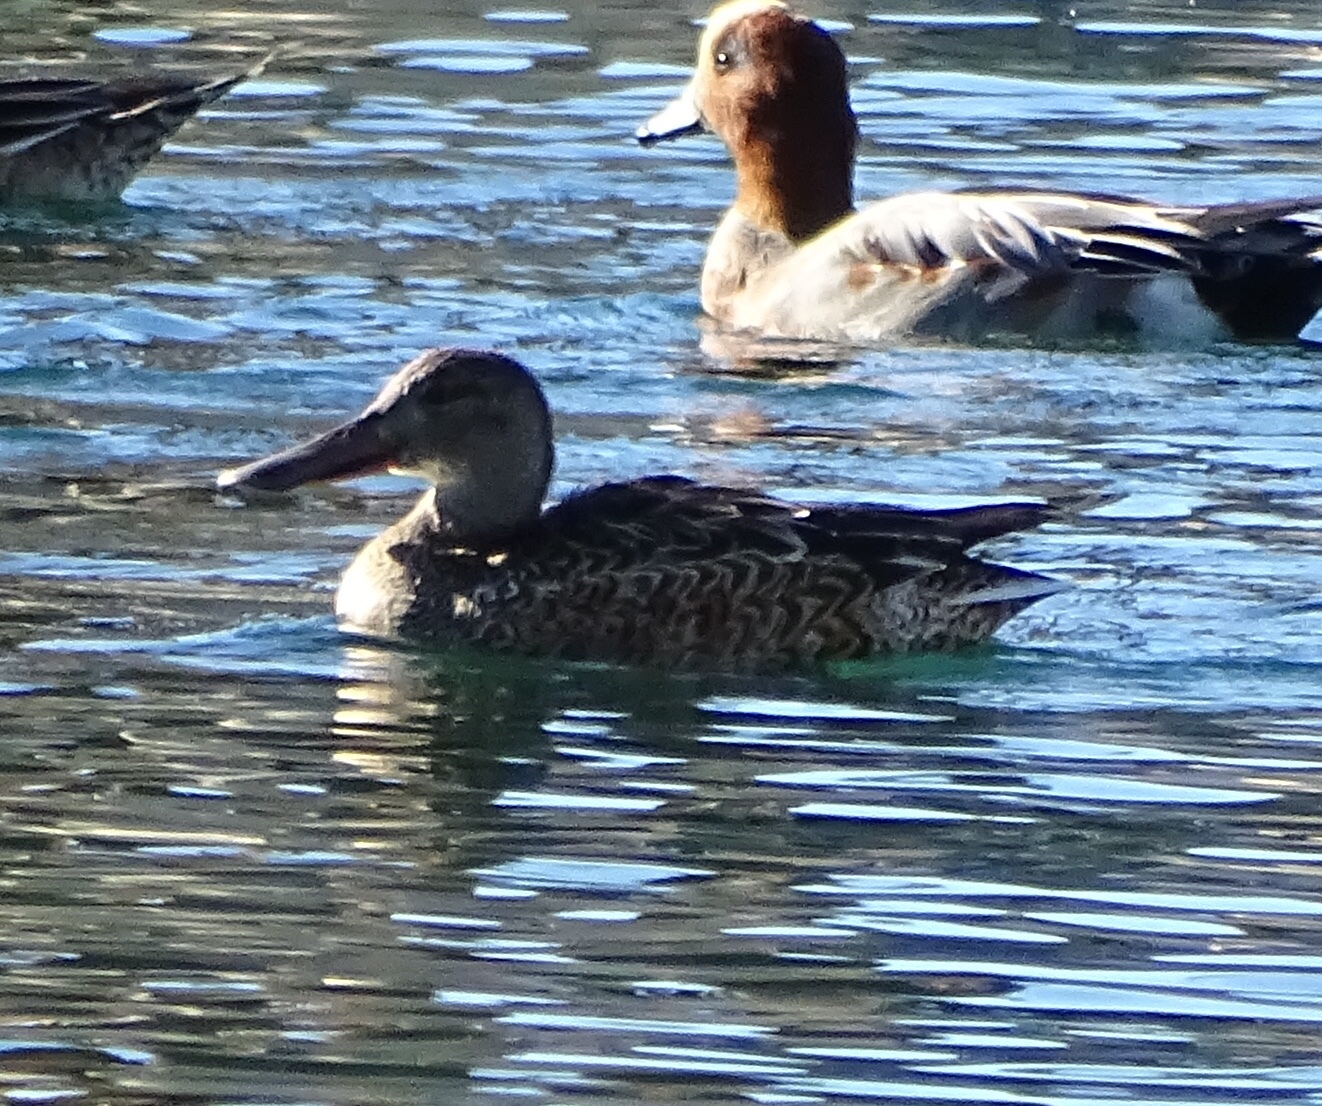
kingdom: Animalia
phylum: Chordata
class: Aves
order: Anseriformes
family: Anatidae
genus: Spatula
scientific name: Spatula clypeata
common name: Northern shoveler
